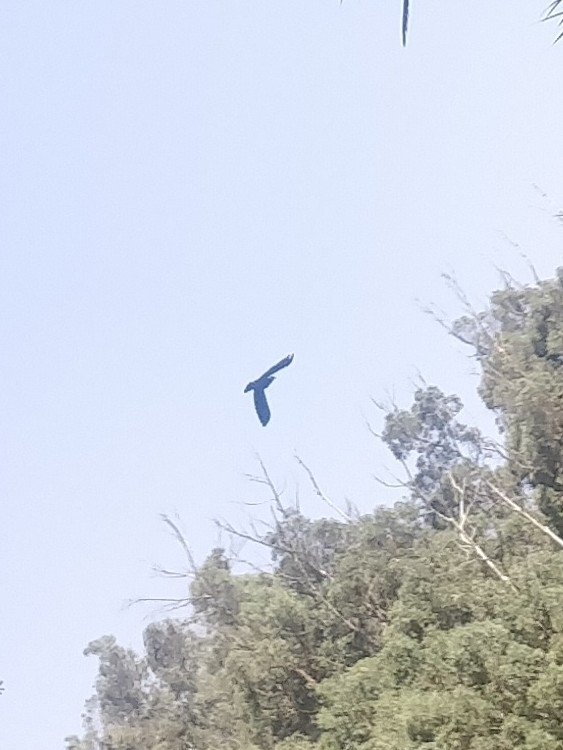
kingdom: Animalia
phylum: Chordata
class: Aves
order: Columbiformes
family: Columbidae
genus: Columba
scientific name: Columba trocaz
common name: Trocaz pigeon
